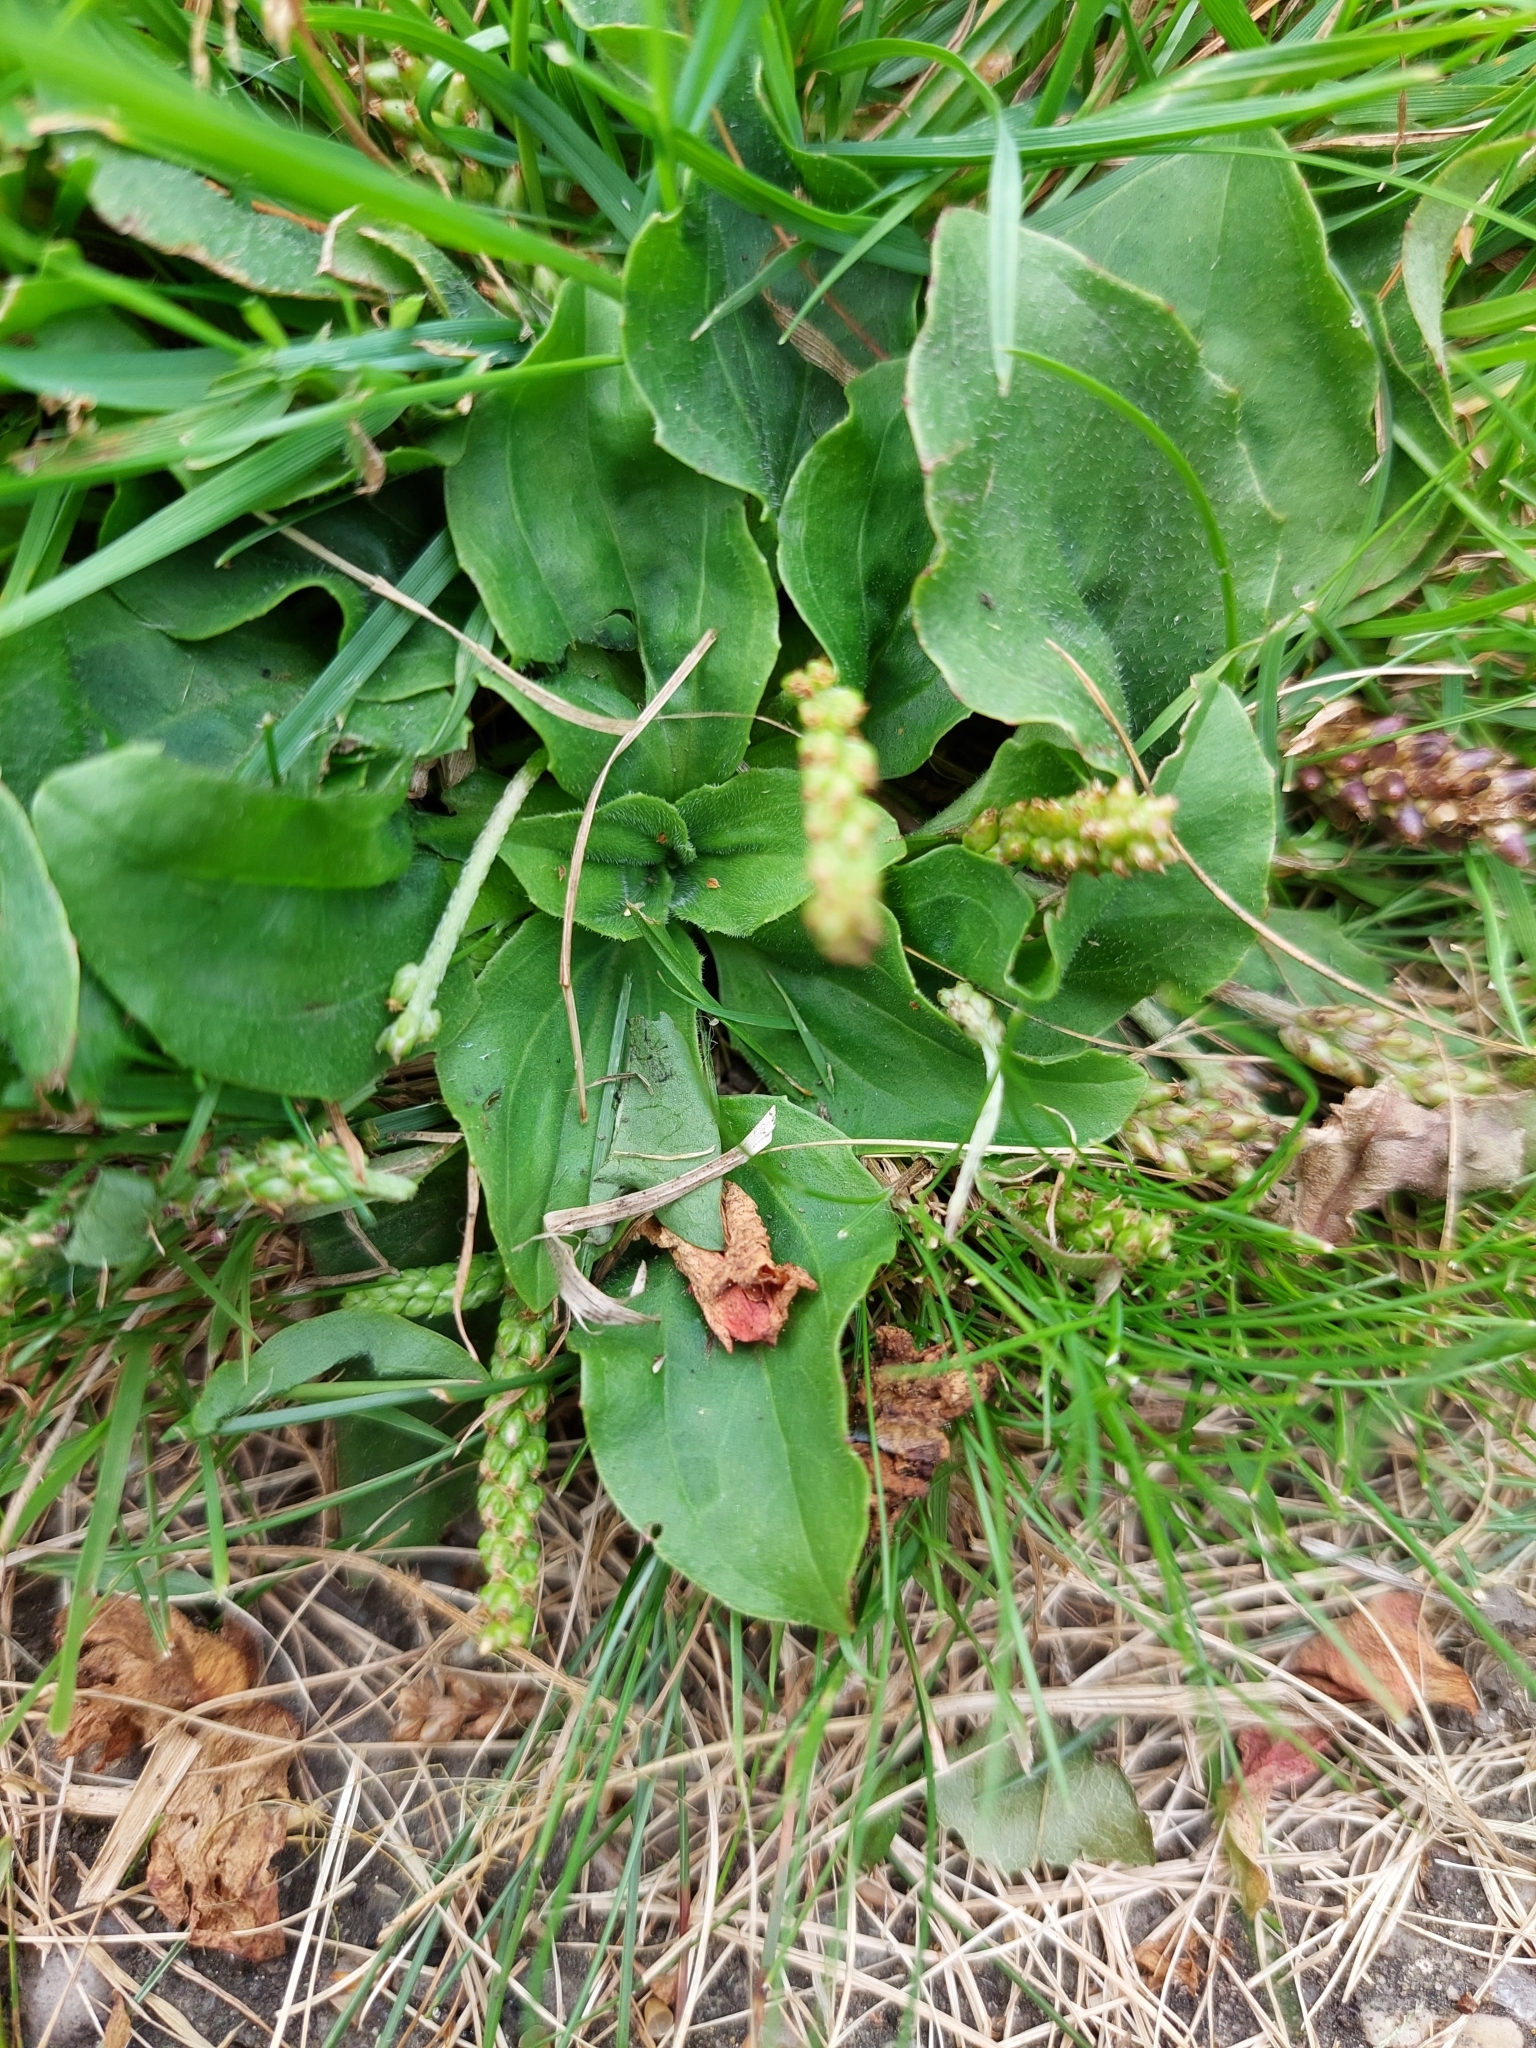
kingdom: Plantae
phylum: Tracheophyta
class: Magnoliopsida
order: Lamiales
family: Plantaginaceae
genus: Plantago
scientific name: Plantago major
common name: Common plantain
